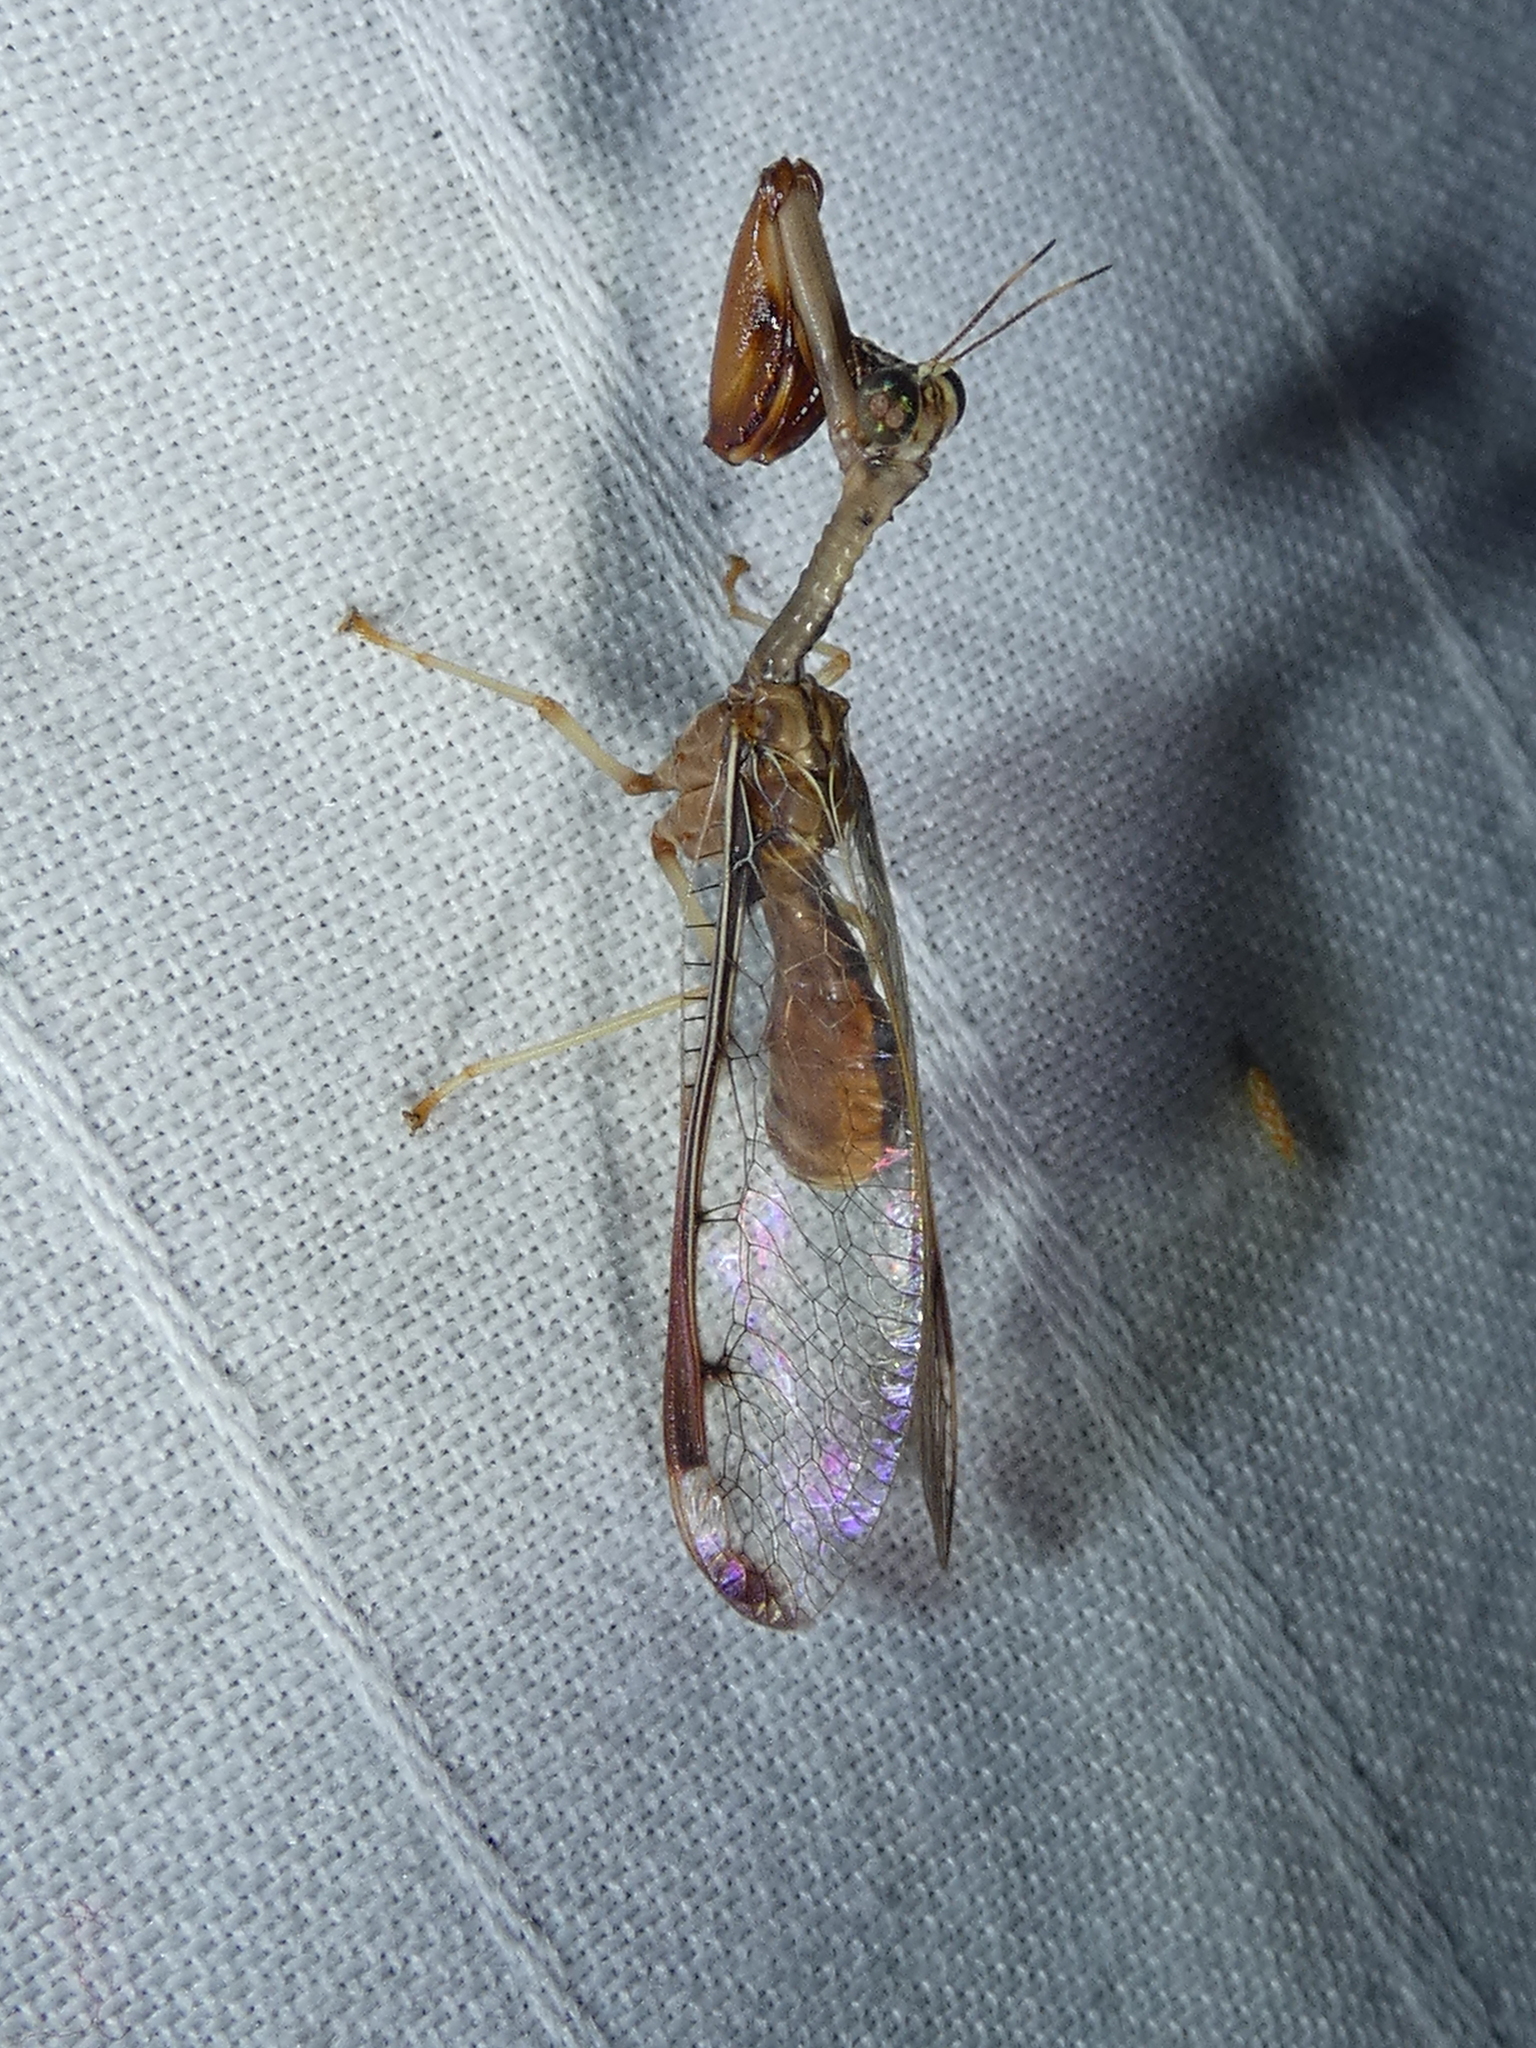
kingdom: Animalia
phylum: Arthropoda
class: Insecta
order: Neuroptera
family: Mantispidae
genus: Dicromantispa
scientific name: Dicromantispa interrupta
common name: Four-spotted mantidfly
